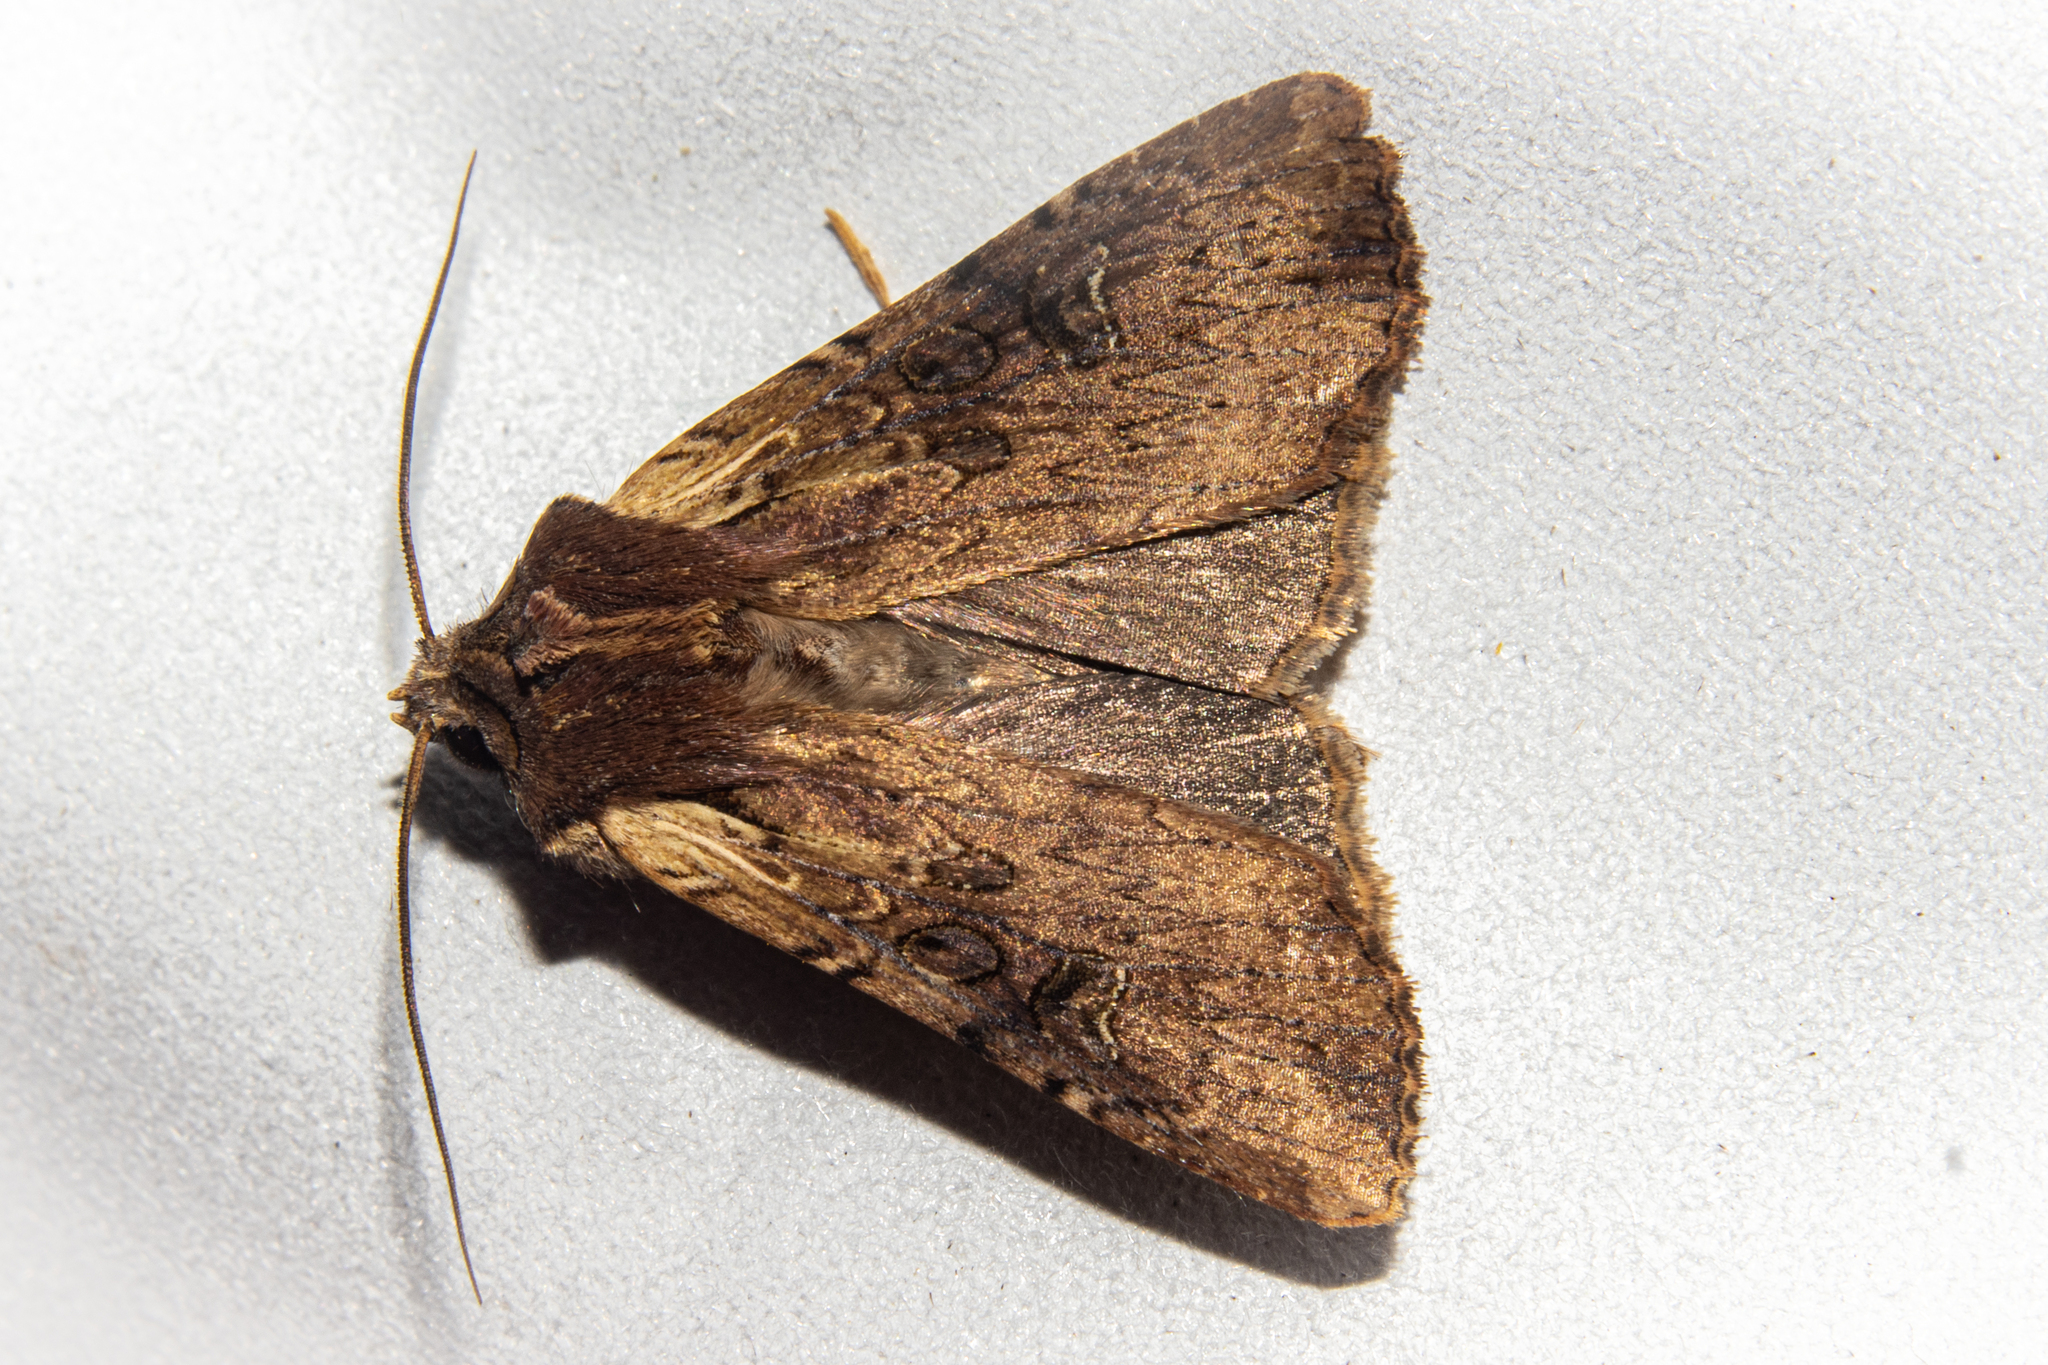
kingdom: Animalia
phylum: Arthropoda
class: Insecta
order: Lepidoptera
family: Noctuidae
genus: Ichneutica
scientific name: Ichneutica omoplaca
